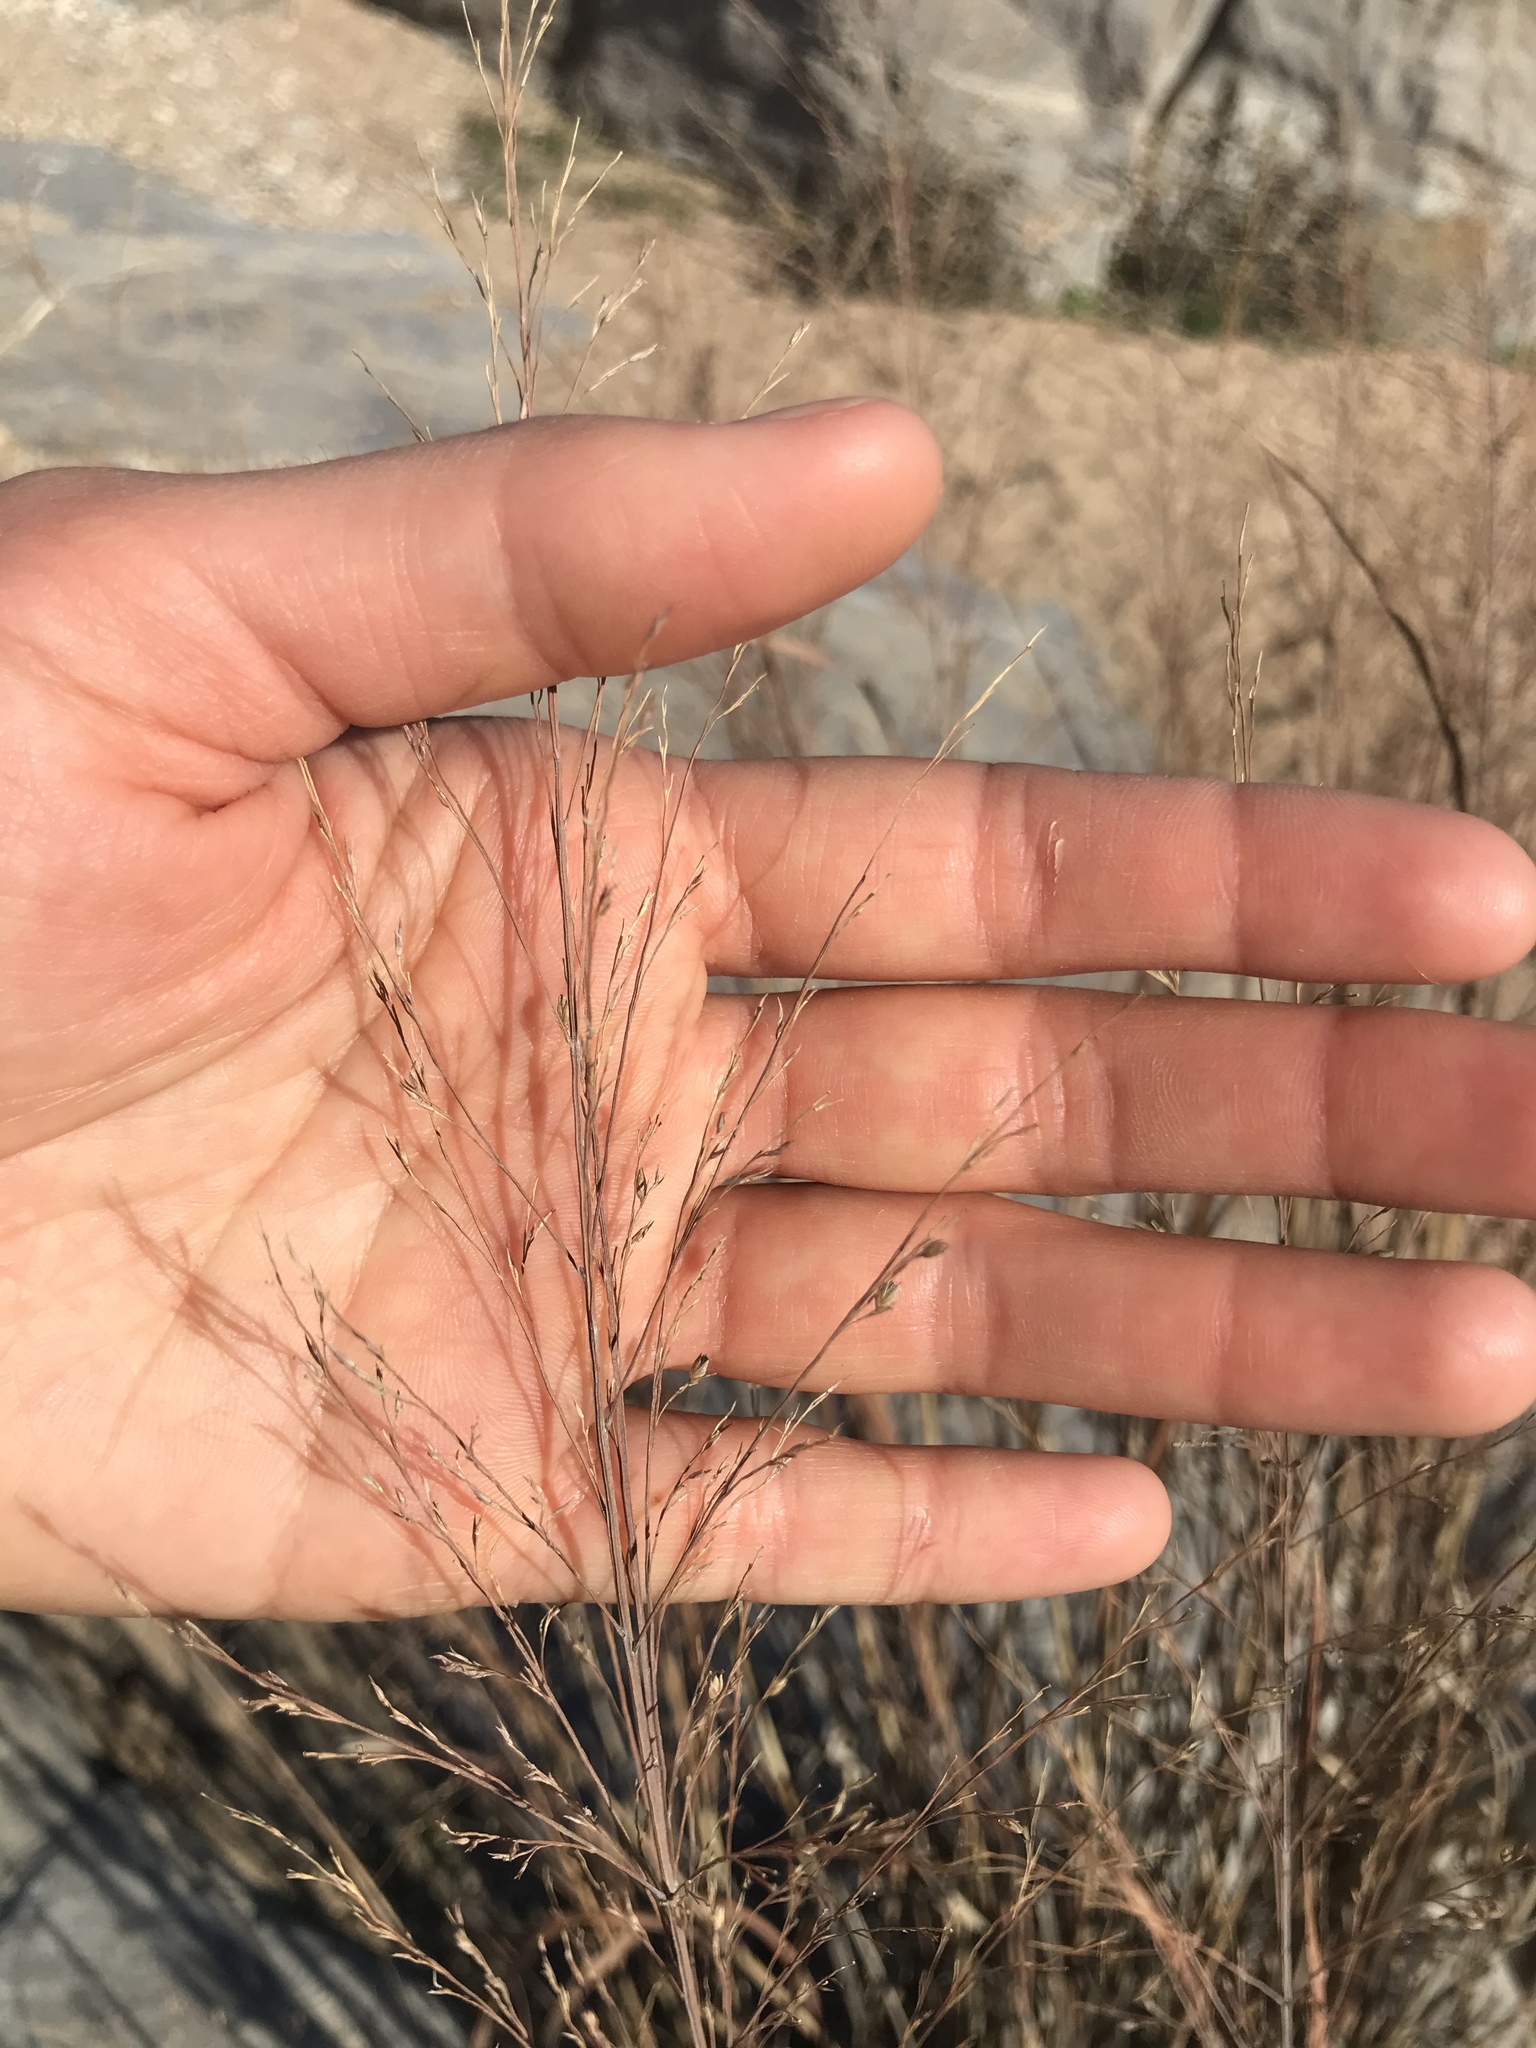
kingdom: Plantae
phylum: Tracheophyta
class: Liliopsida
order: Poales
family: Poaceae
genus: Panicum
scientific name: Panicum virgatum
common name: Switchgrass
